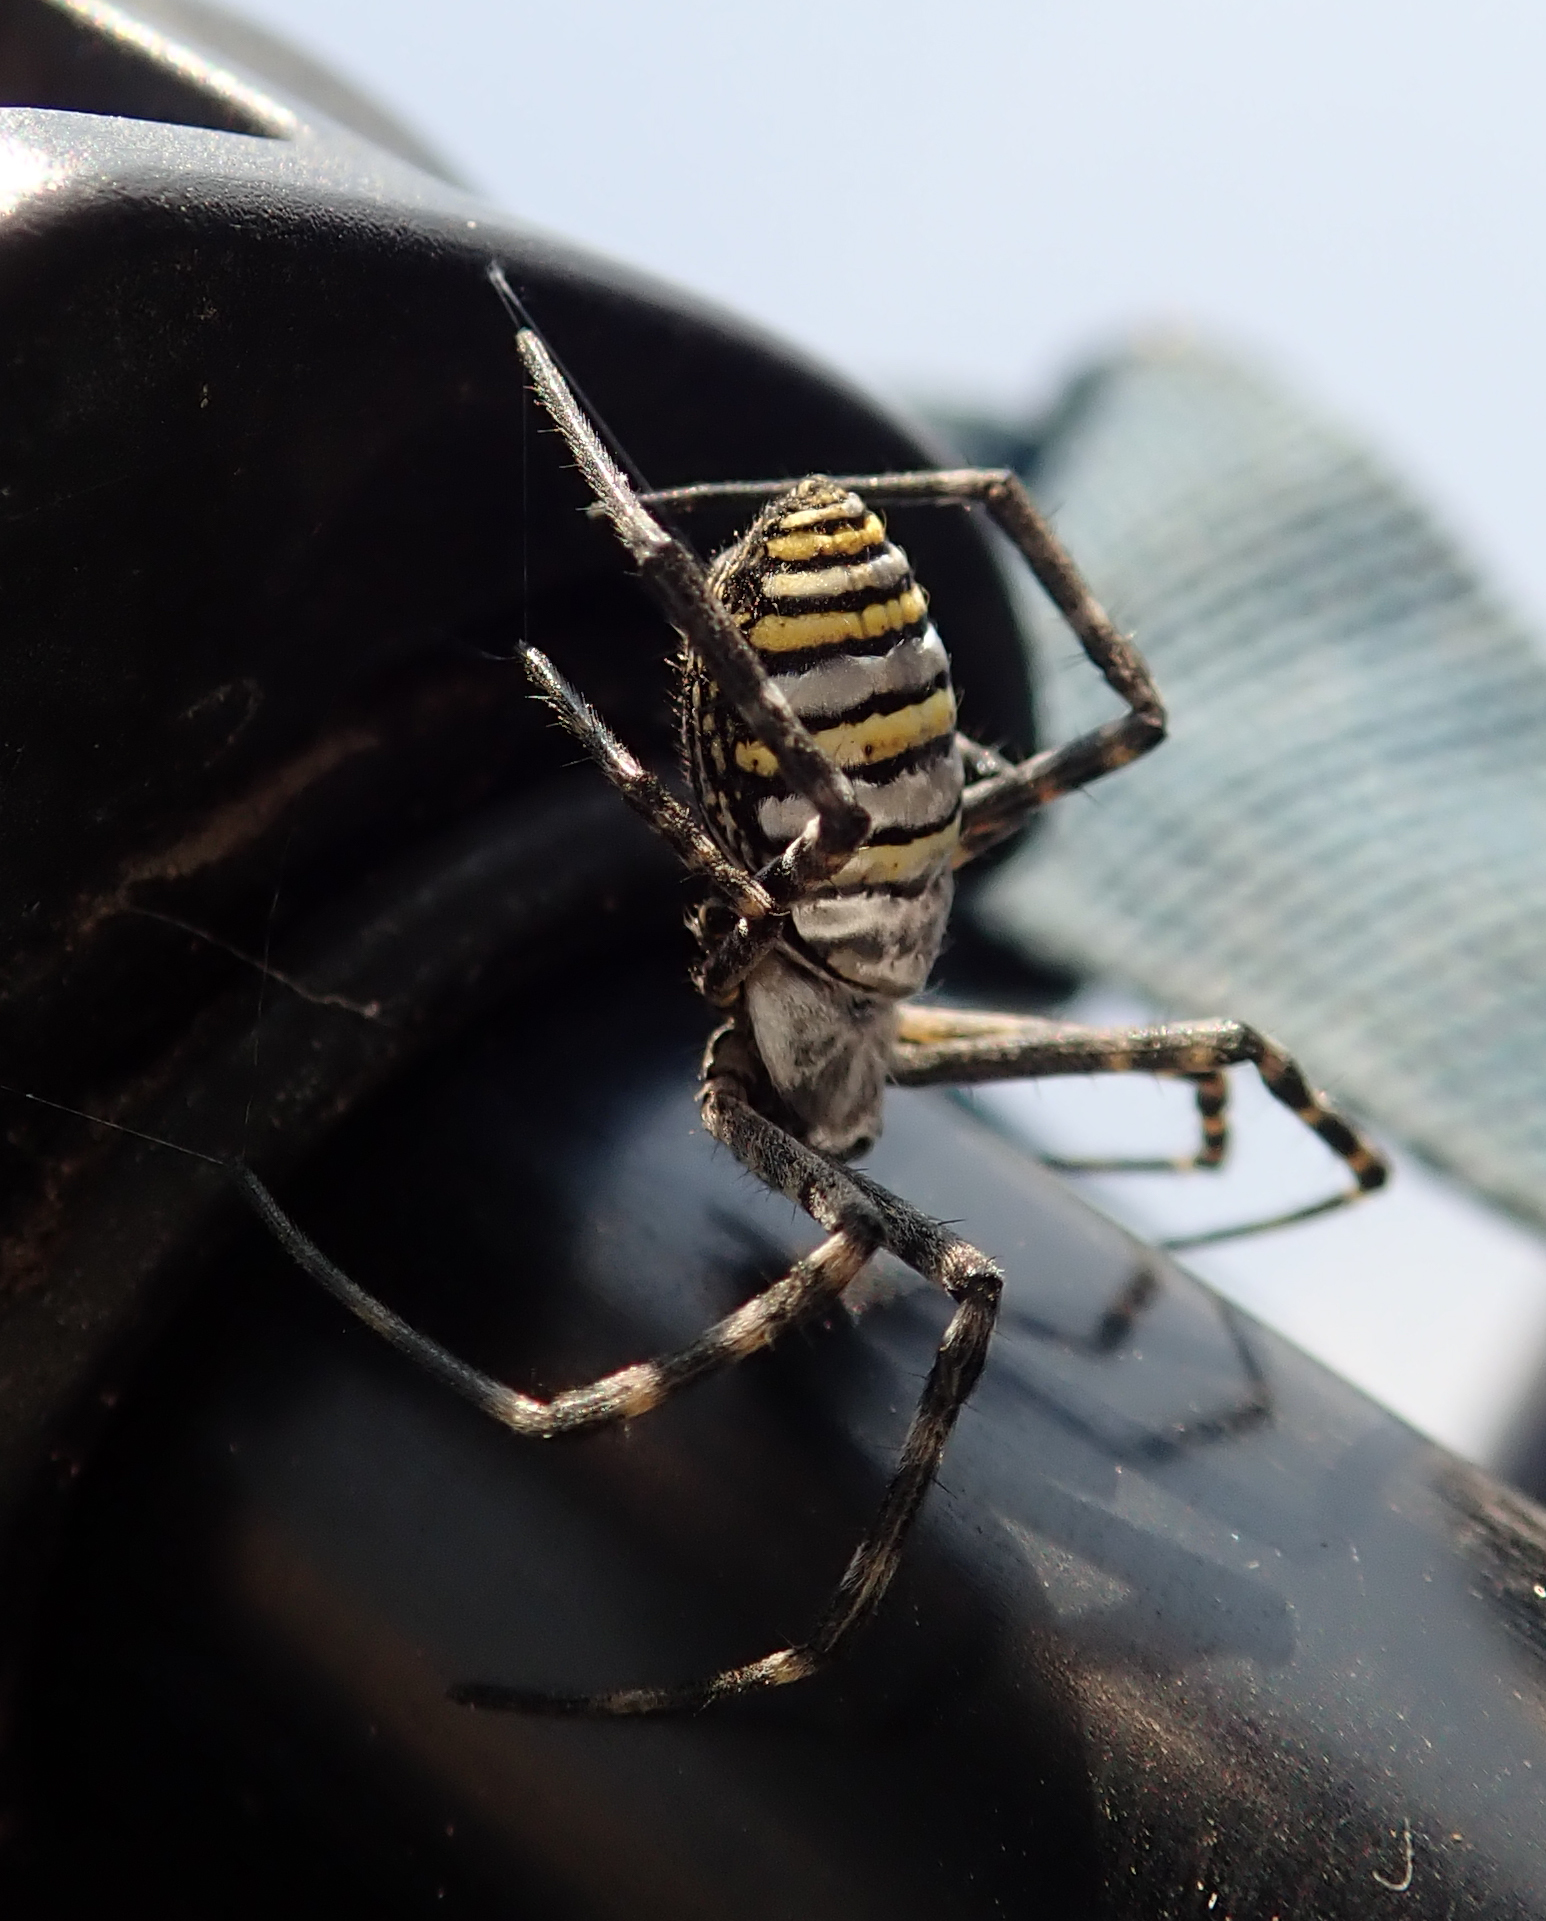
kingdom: Animalia
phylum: Arthropoda
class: Arachnida
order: Araneae
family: Araneidae
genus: Argiope
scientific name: Argiope trifasciata
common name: Banded garden spider
